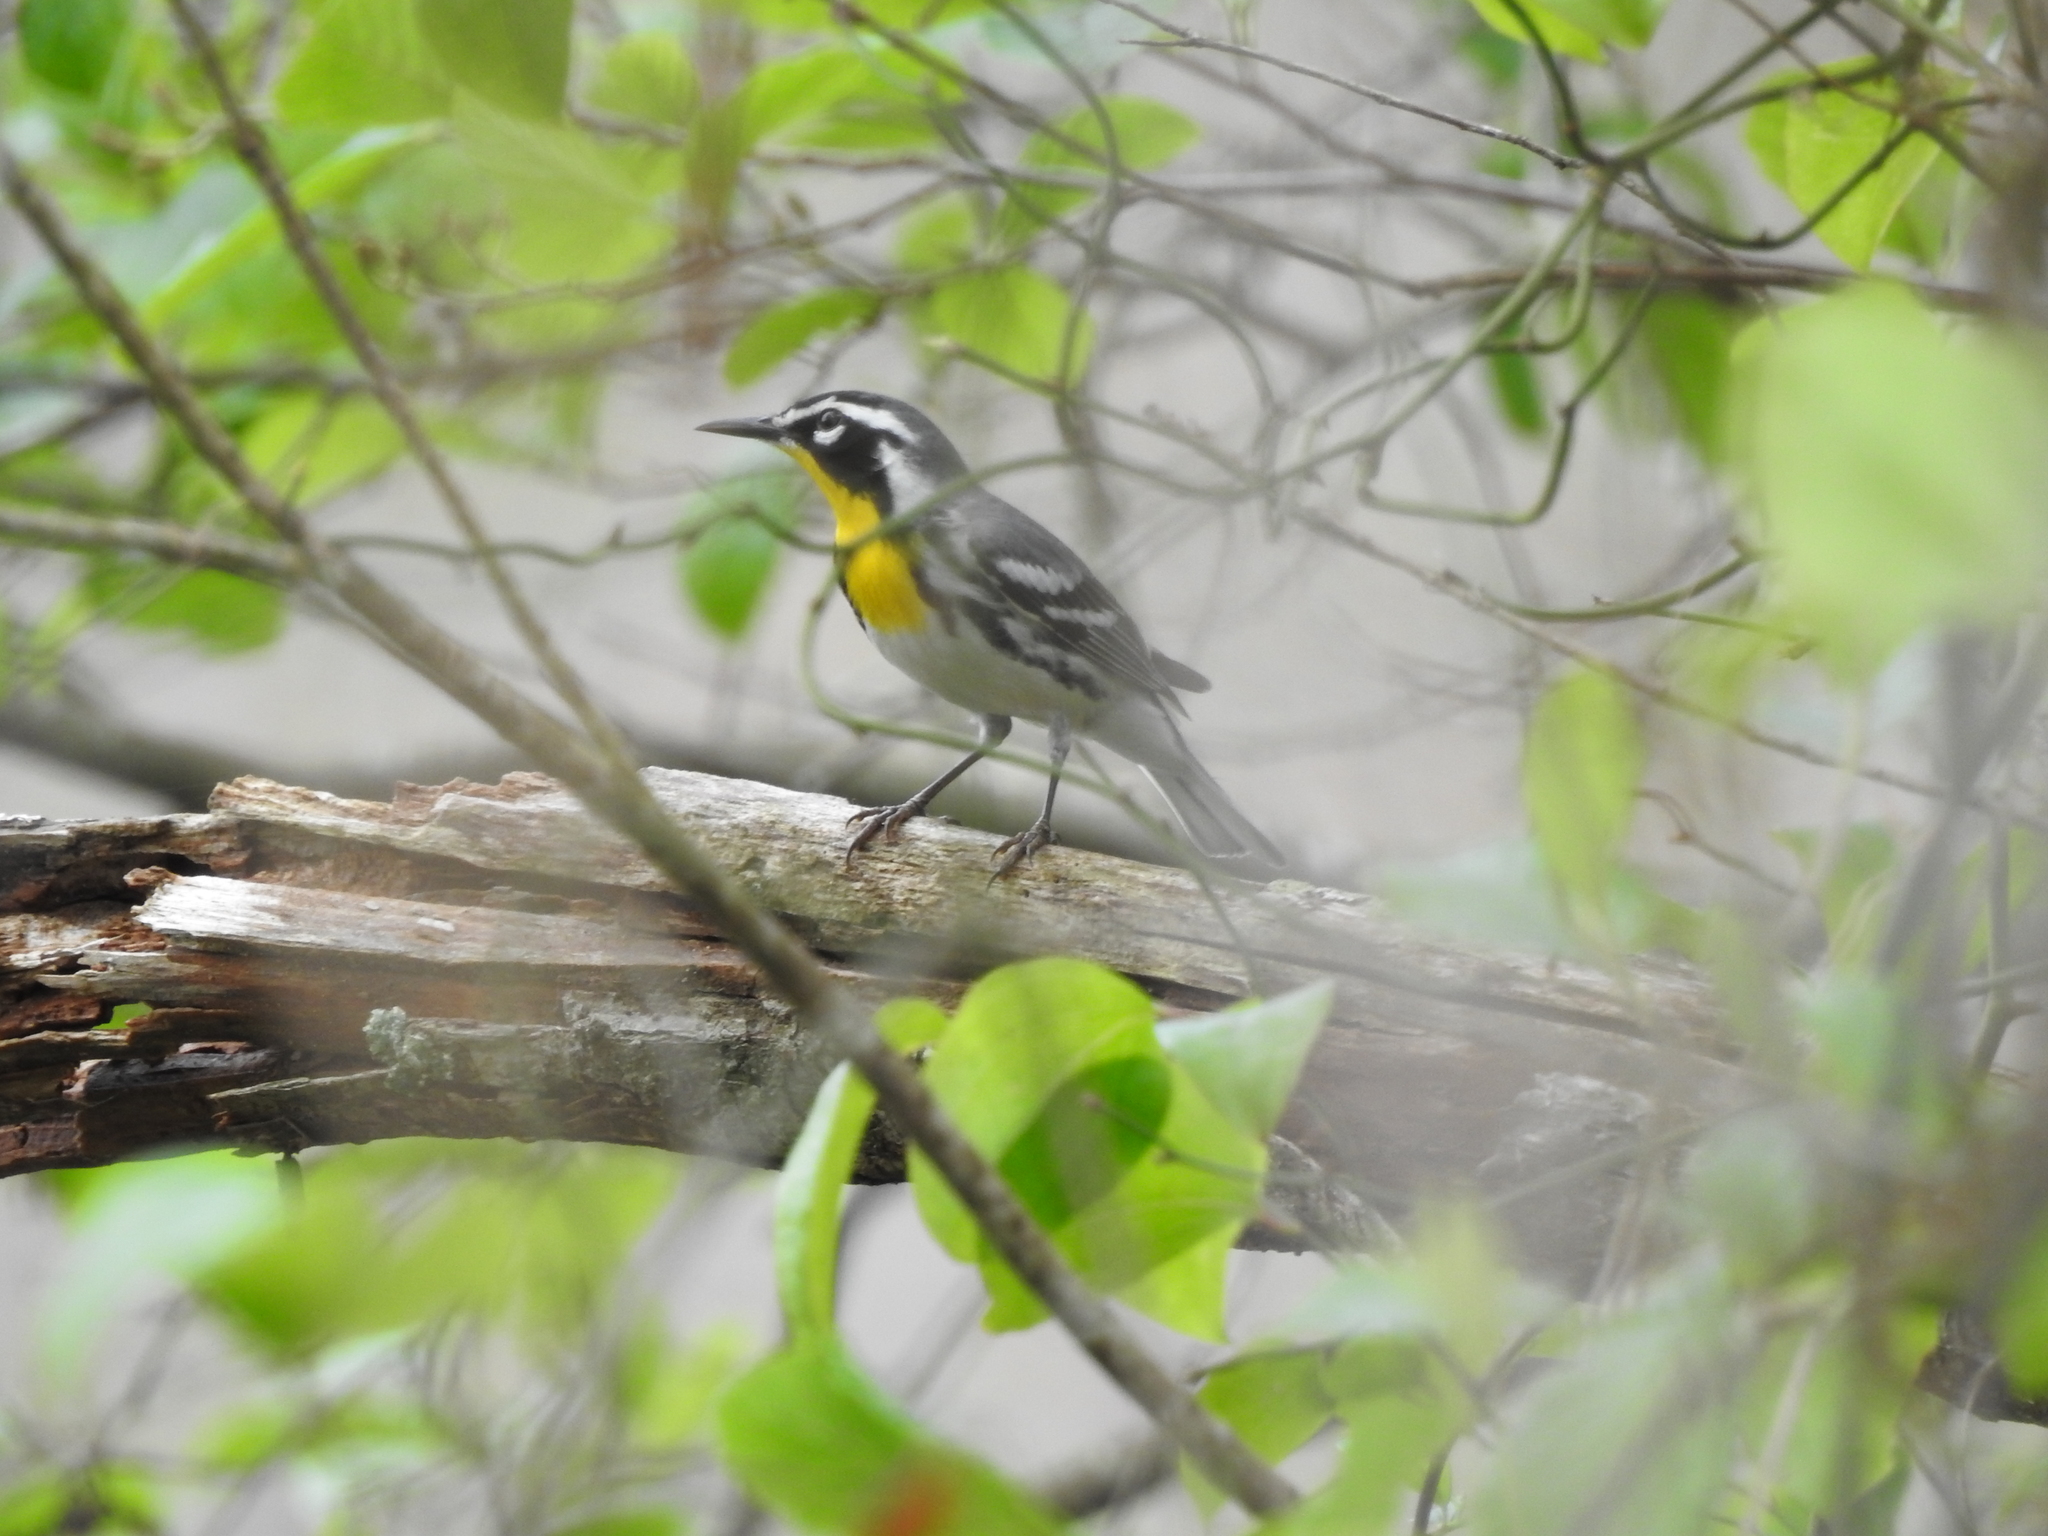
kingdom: Animalia
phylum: Chordata
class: Aves
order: Passeriformes
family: Parulidae
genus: Setophaga
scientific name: Setophaga dominica
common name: Yellow-throated warbler
